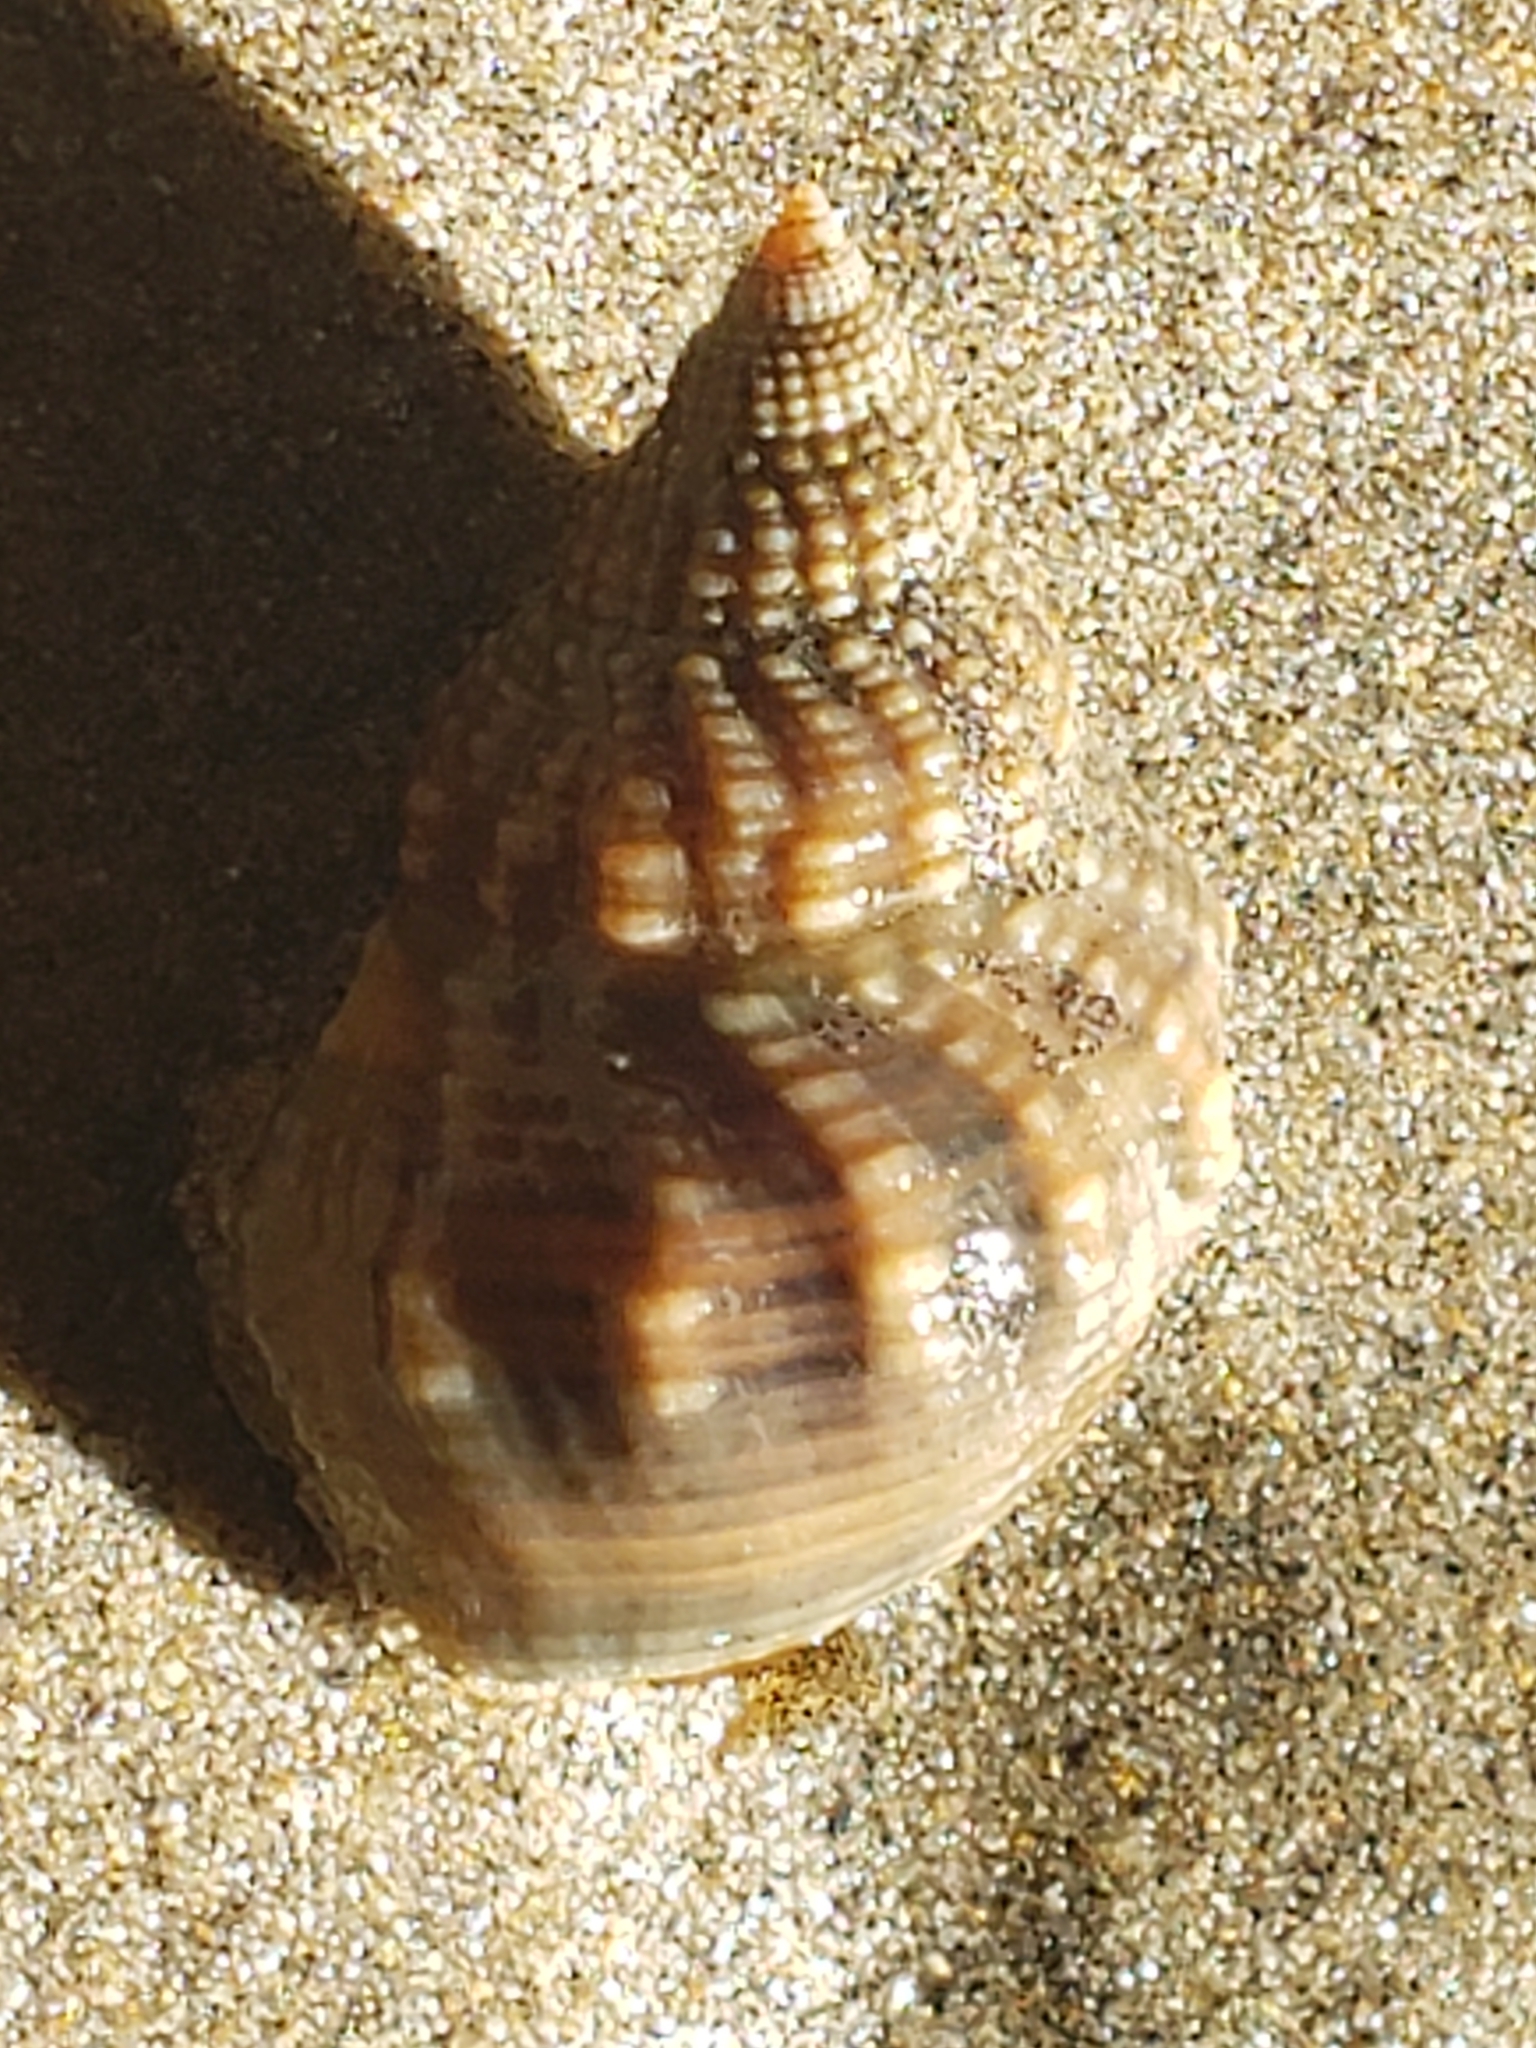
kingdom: Animalia
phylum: Mollusca
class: Gastropoda
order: Neogastropoda
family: Nassariidae
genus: Caesia
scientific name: Caesia fossata
